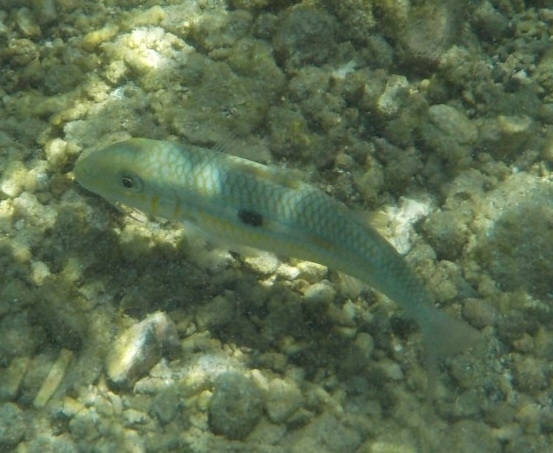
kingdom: Animalia
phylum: Chordata
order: Perciformes
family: Mullidae
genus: Mulloidichthys
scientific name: Mulloidichthys flavolineatus
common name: Yellowstripe goatfish
